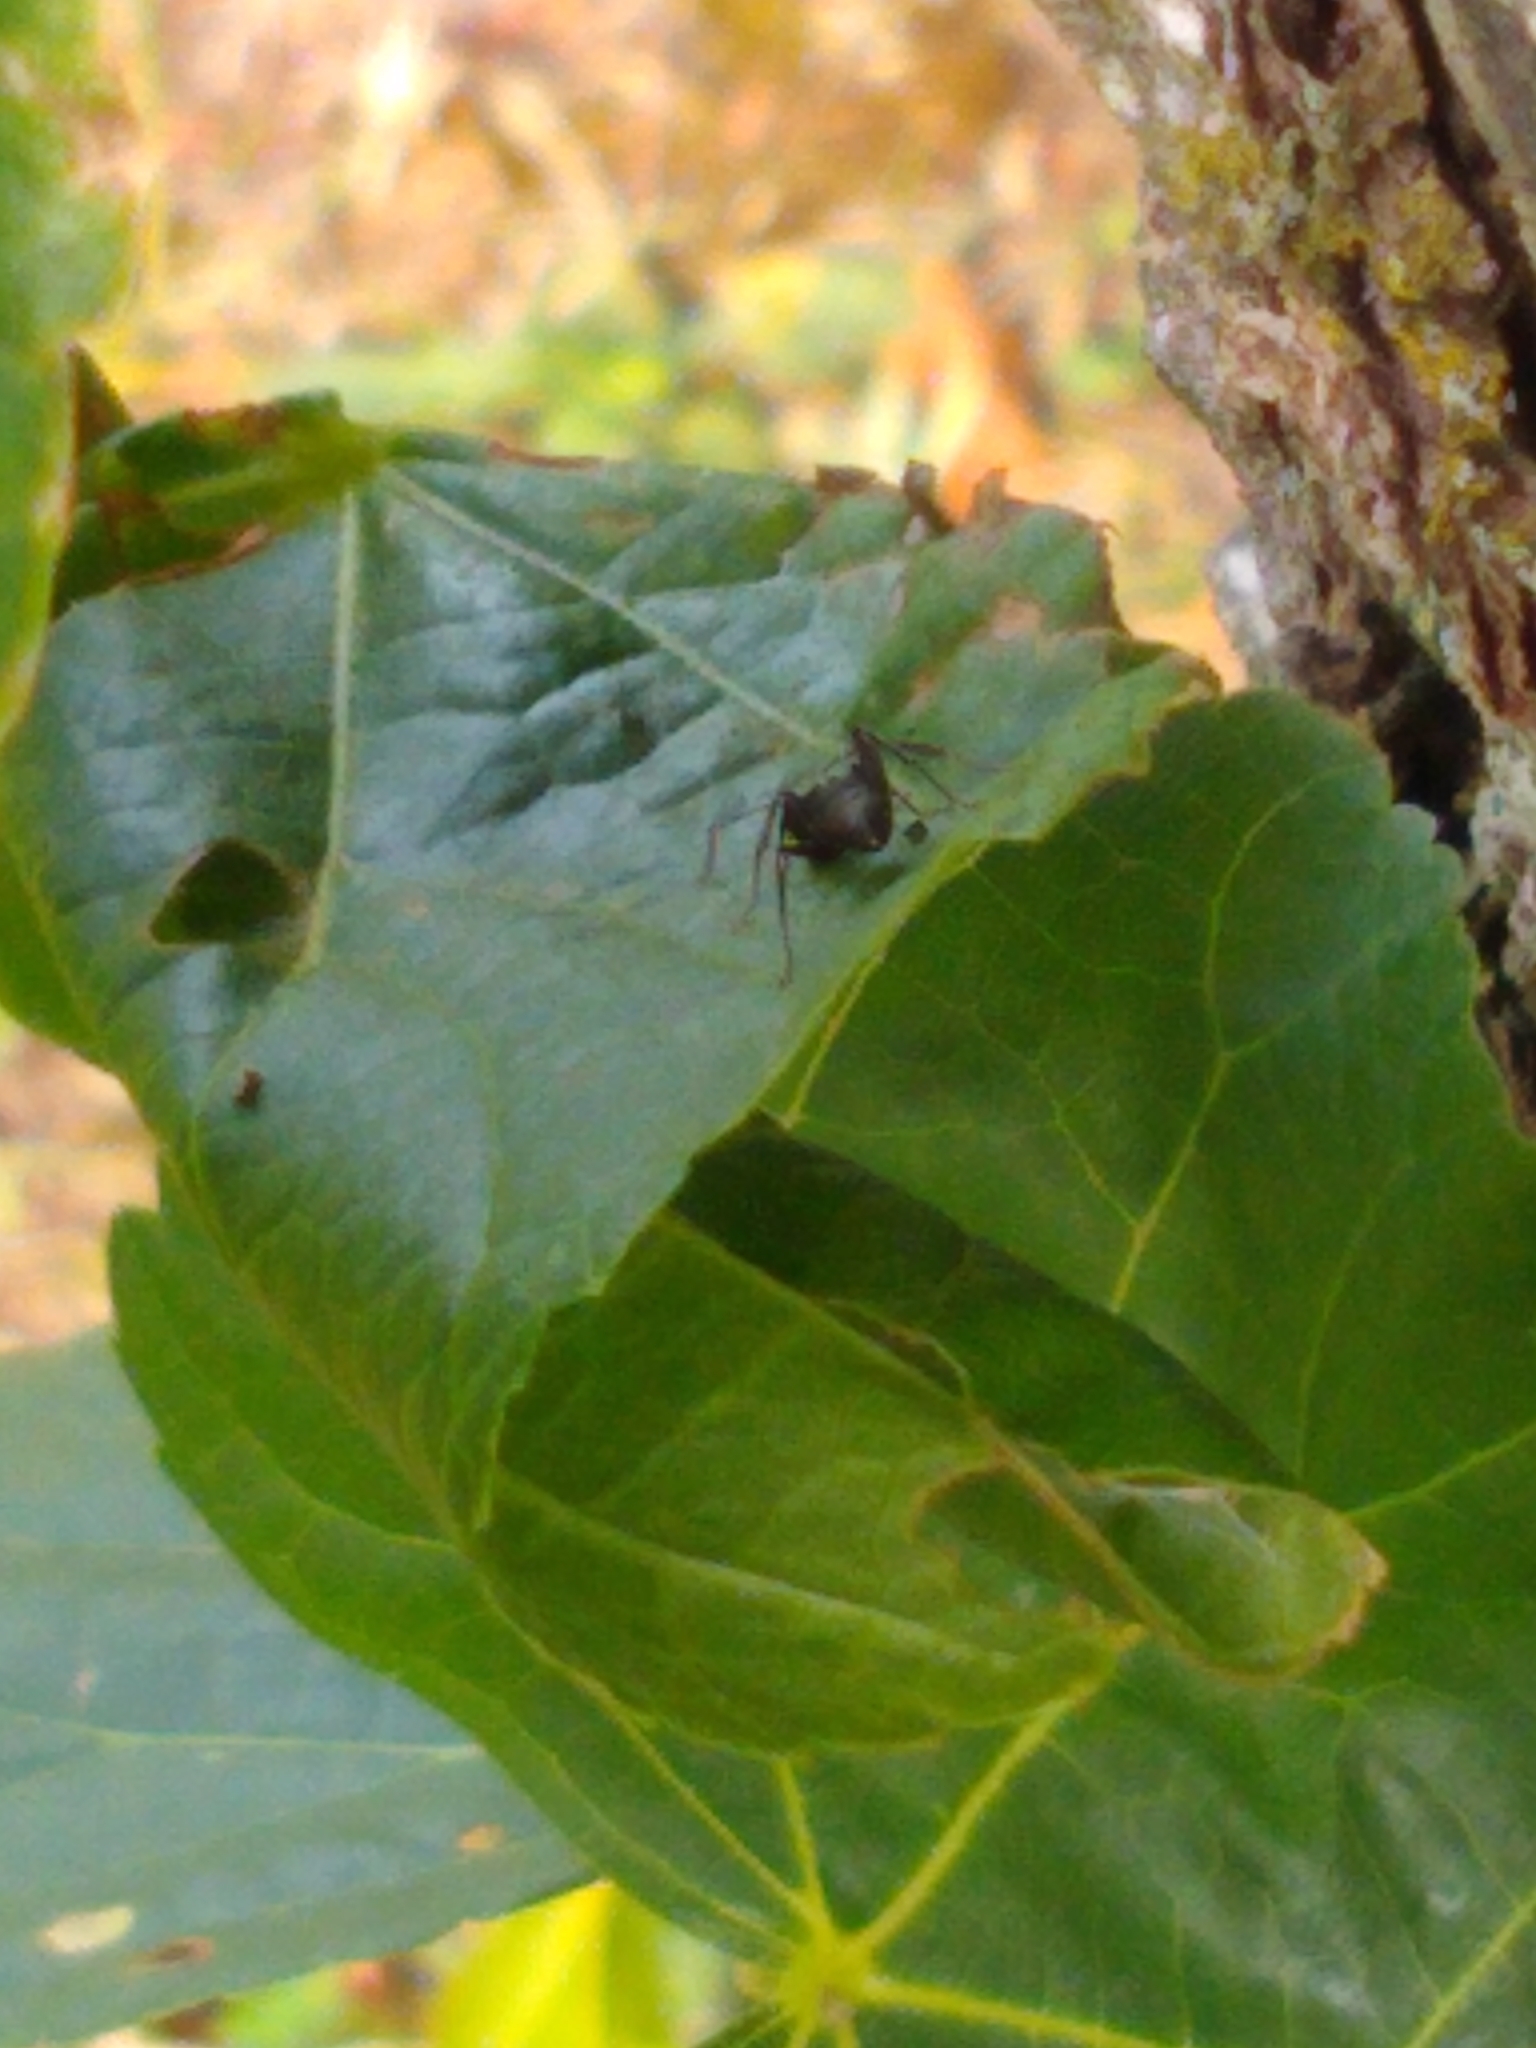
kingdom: Animalia
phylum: Arthropoda
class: Insecta
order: Hymenoptera
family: Formicidae
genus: Camponotus
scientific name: Camponotus pennsylvanicus
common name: Black carpenter ant
